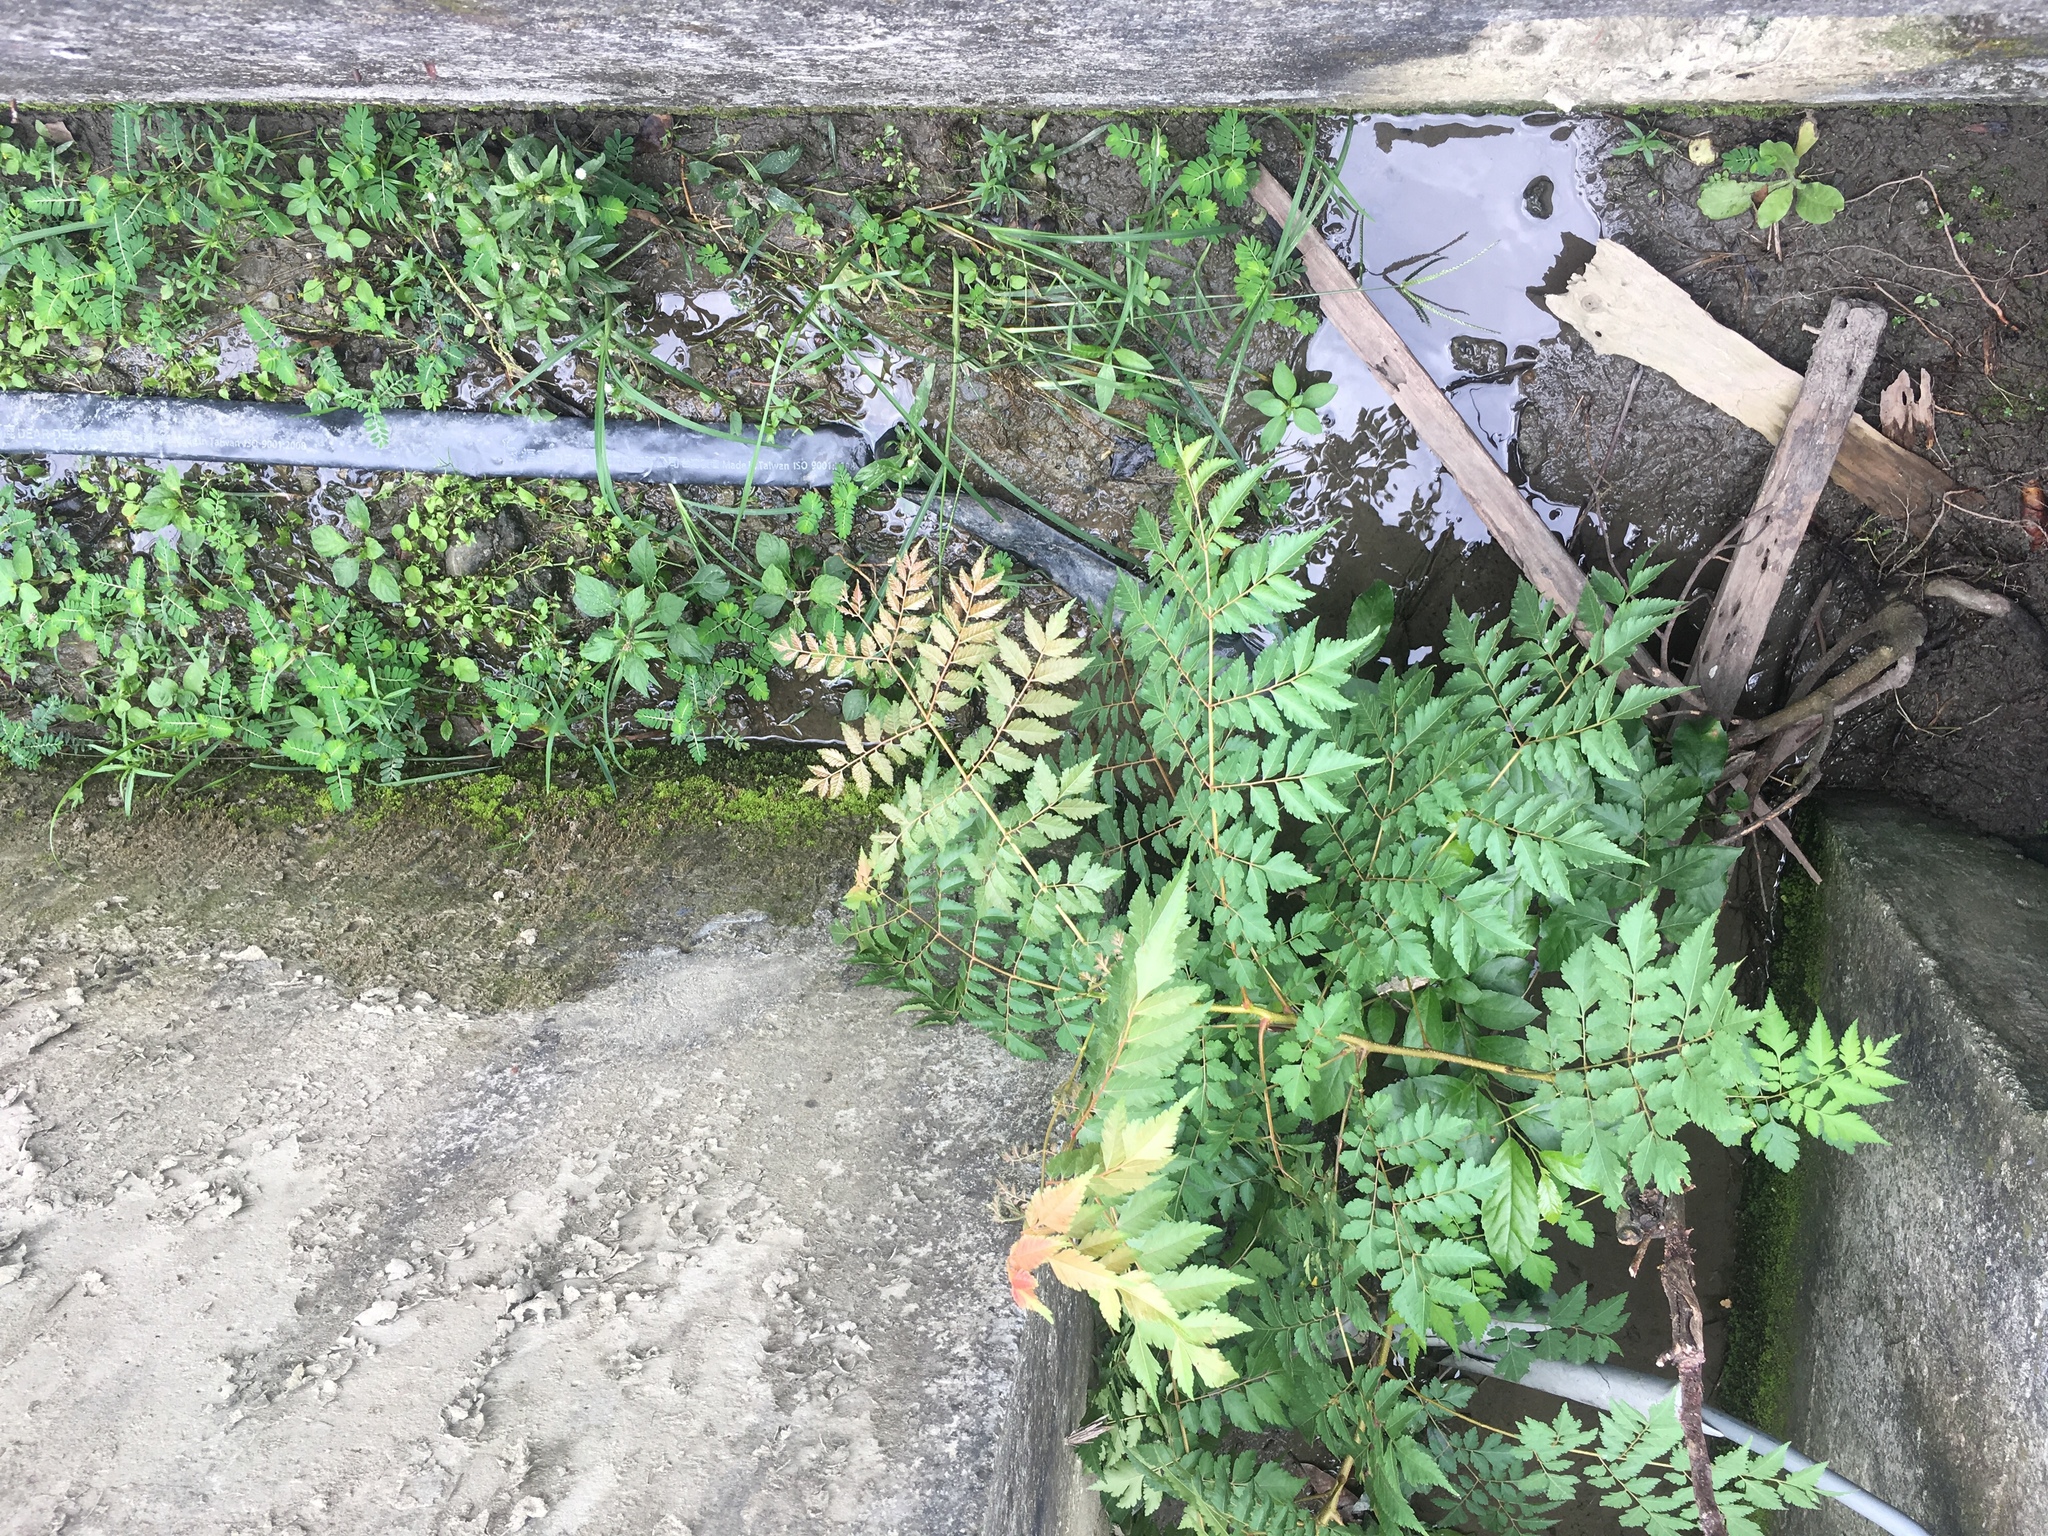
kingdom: Plantae
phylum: Tracheophyta
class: Magnoliopsida
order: Sapindales
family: Sapindaceae
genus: Koelreuteria
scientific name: Koelreuteria elegans
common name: Chinese flame tree
